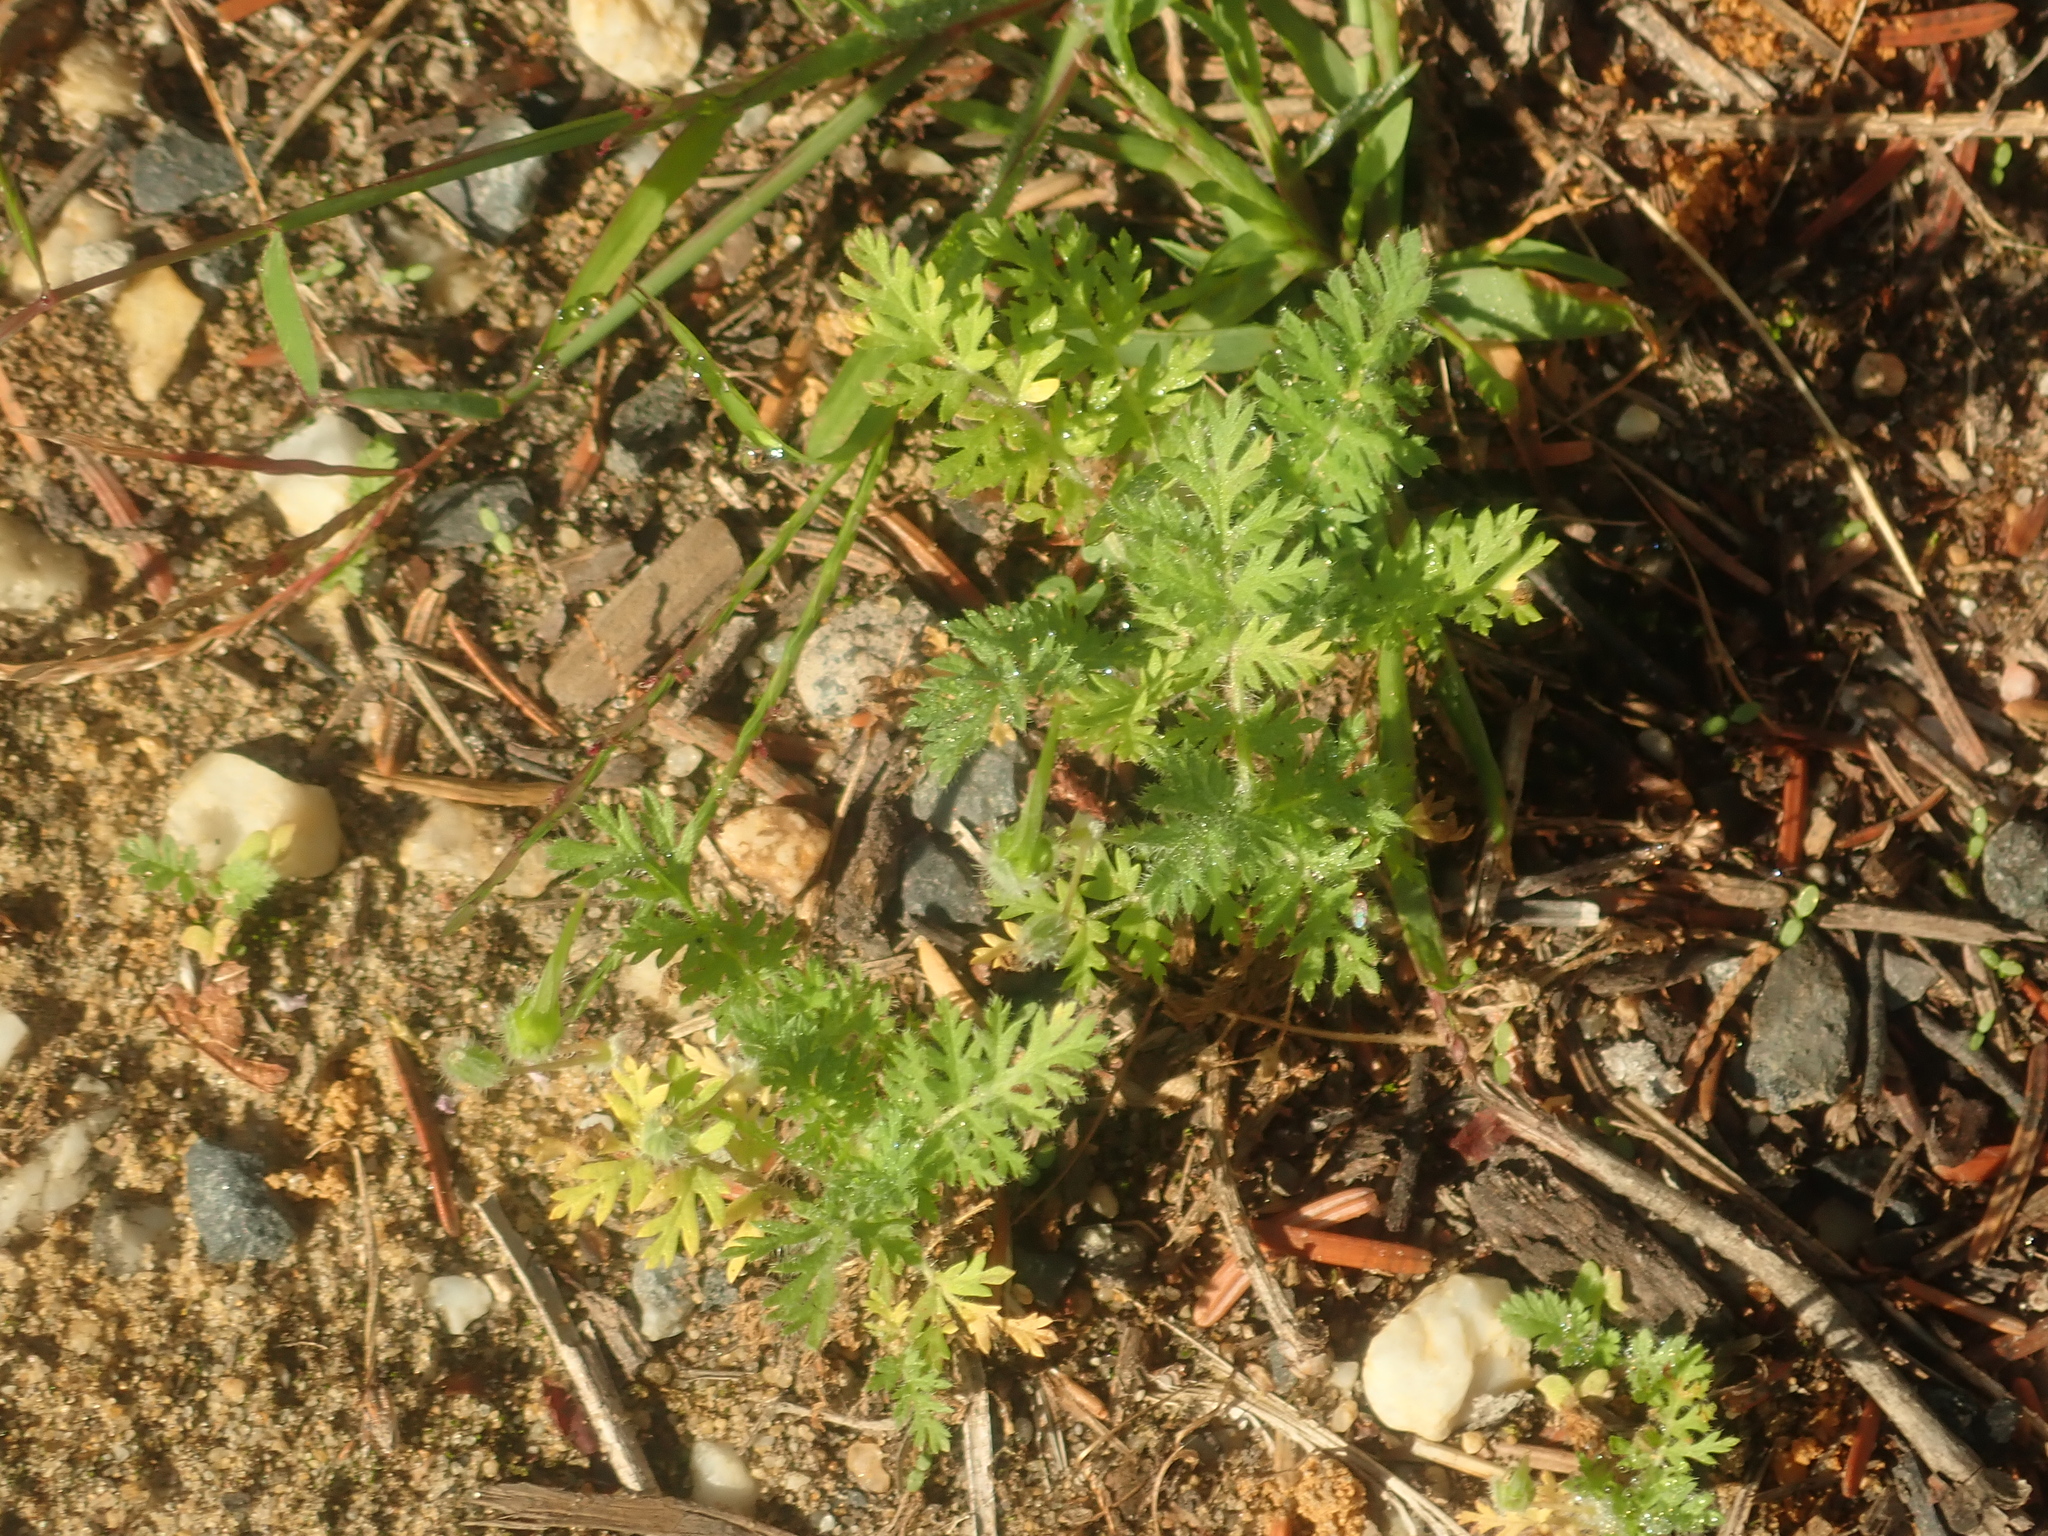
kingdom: Plantae
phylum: Tracheophyta
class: Magnoliopsida
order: Geraniales
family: Geraniaceae
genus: Erodium
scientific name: Erodium cicutarium
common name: Common stork's-bill
